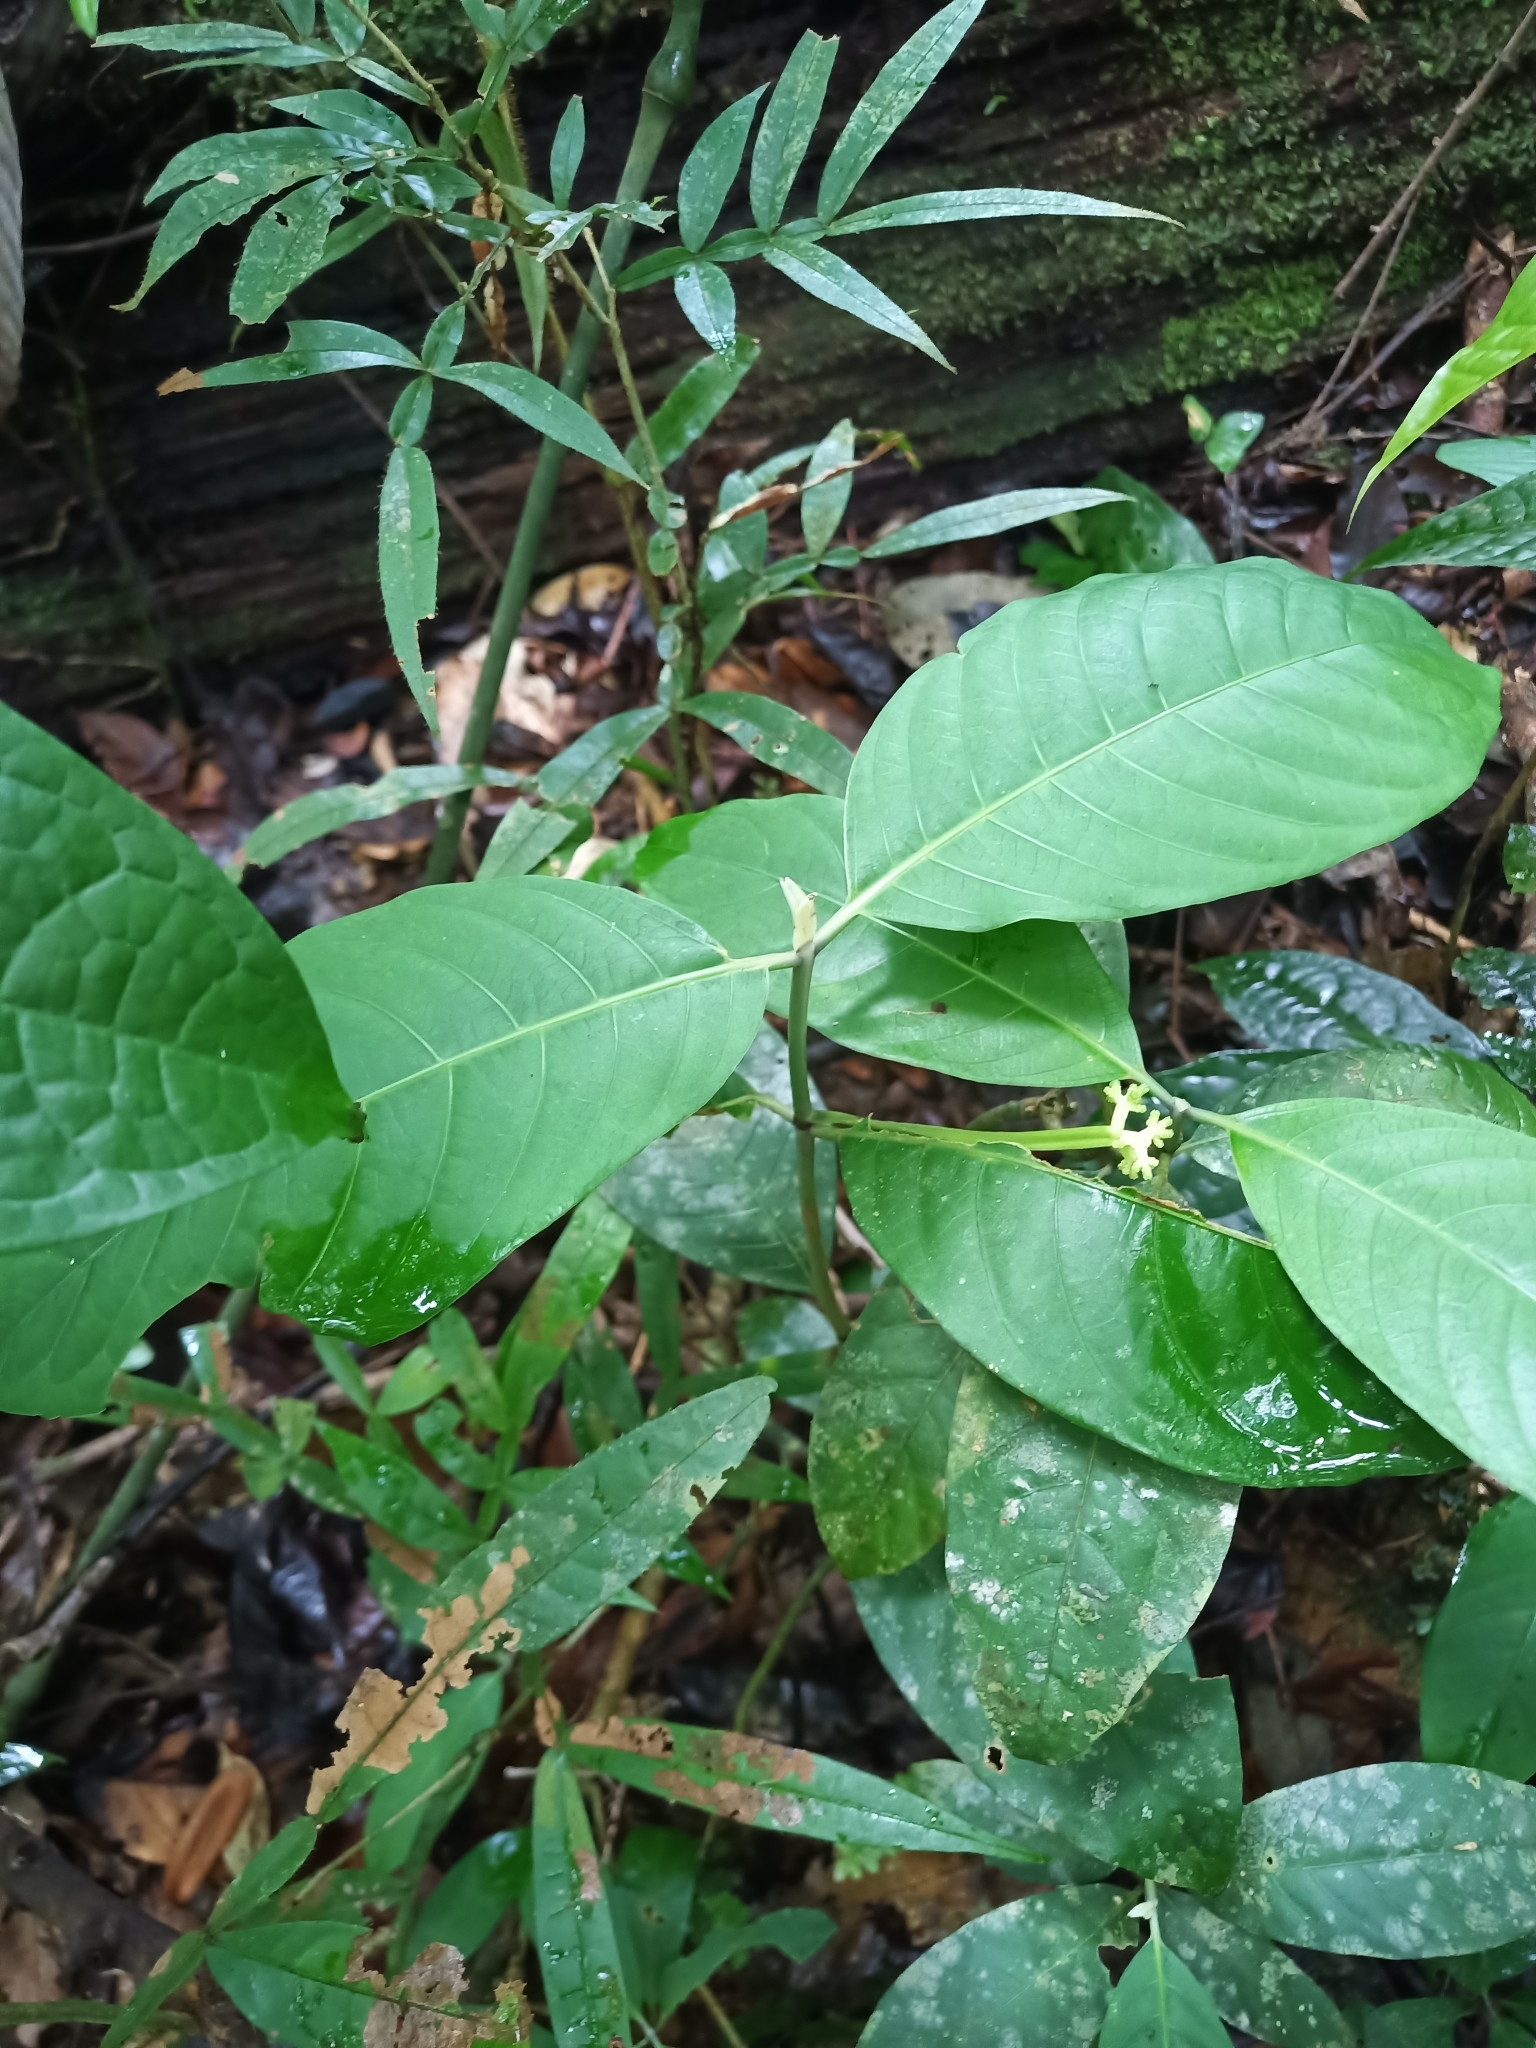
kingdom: Plantae
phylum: Tracheophyta
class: Magnoliopsida
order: Gentianales
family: Rubiaceae
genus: Rudgea
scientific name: Rudgea stipulacea
